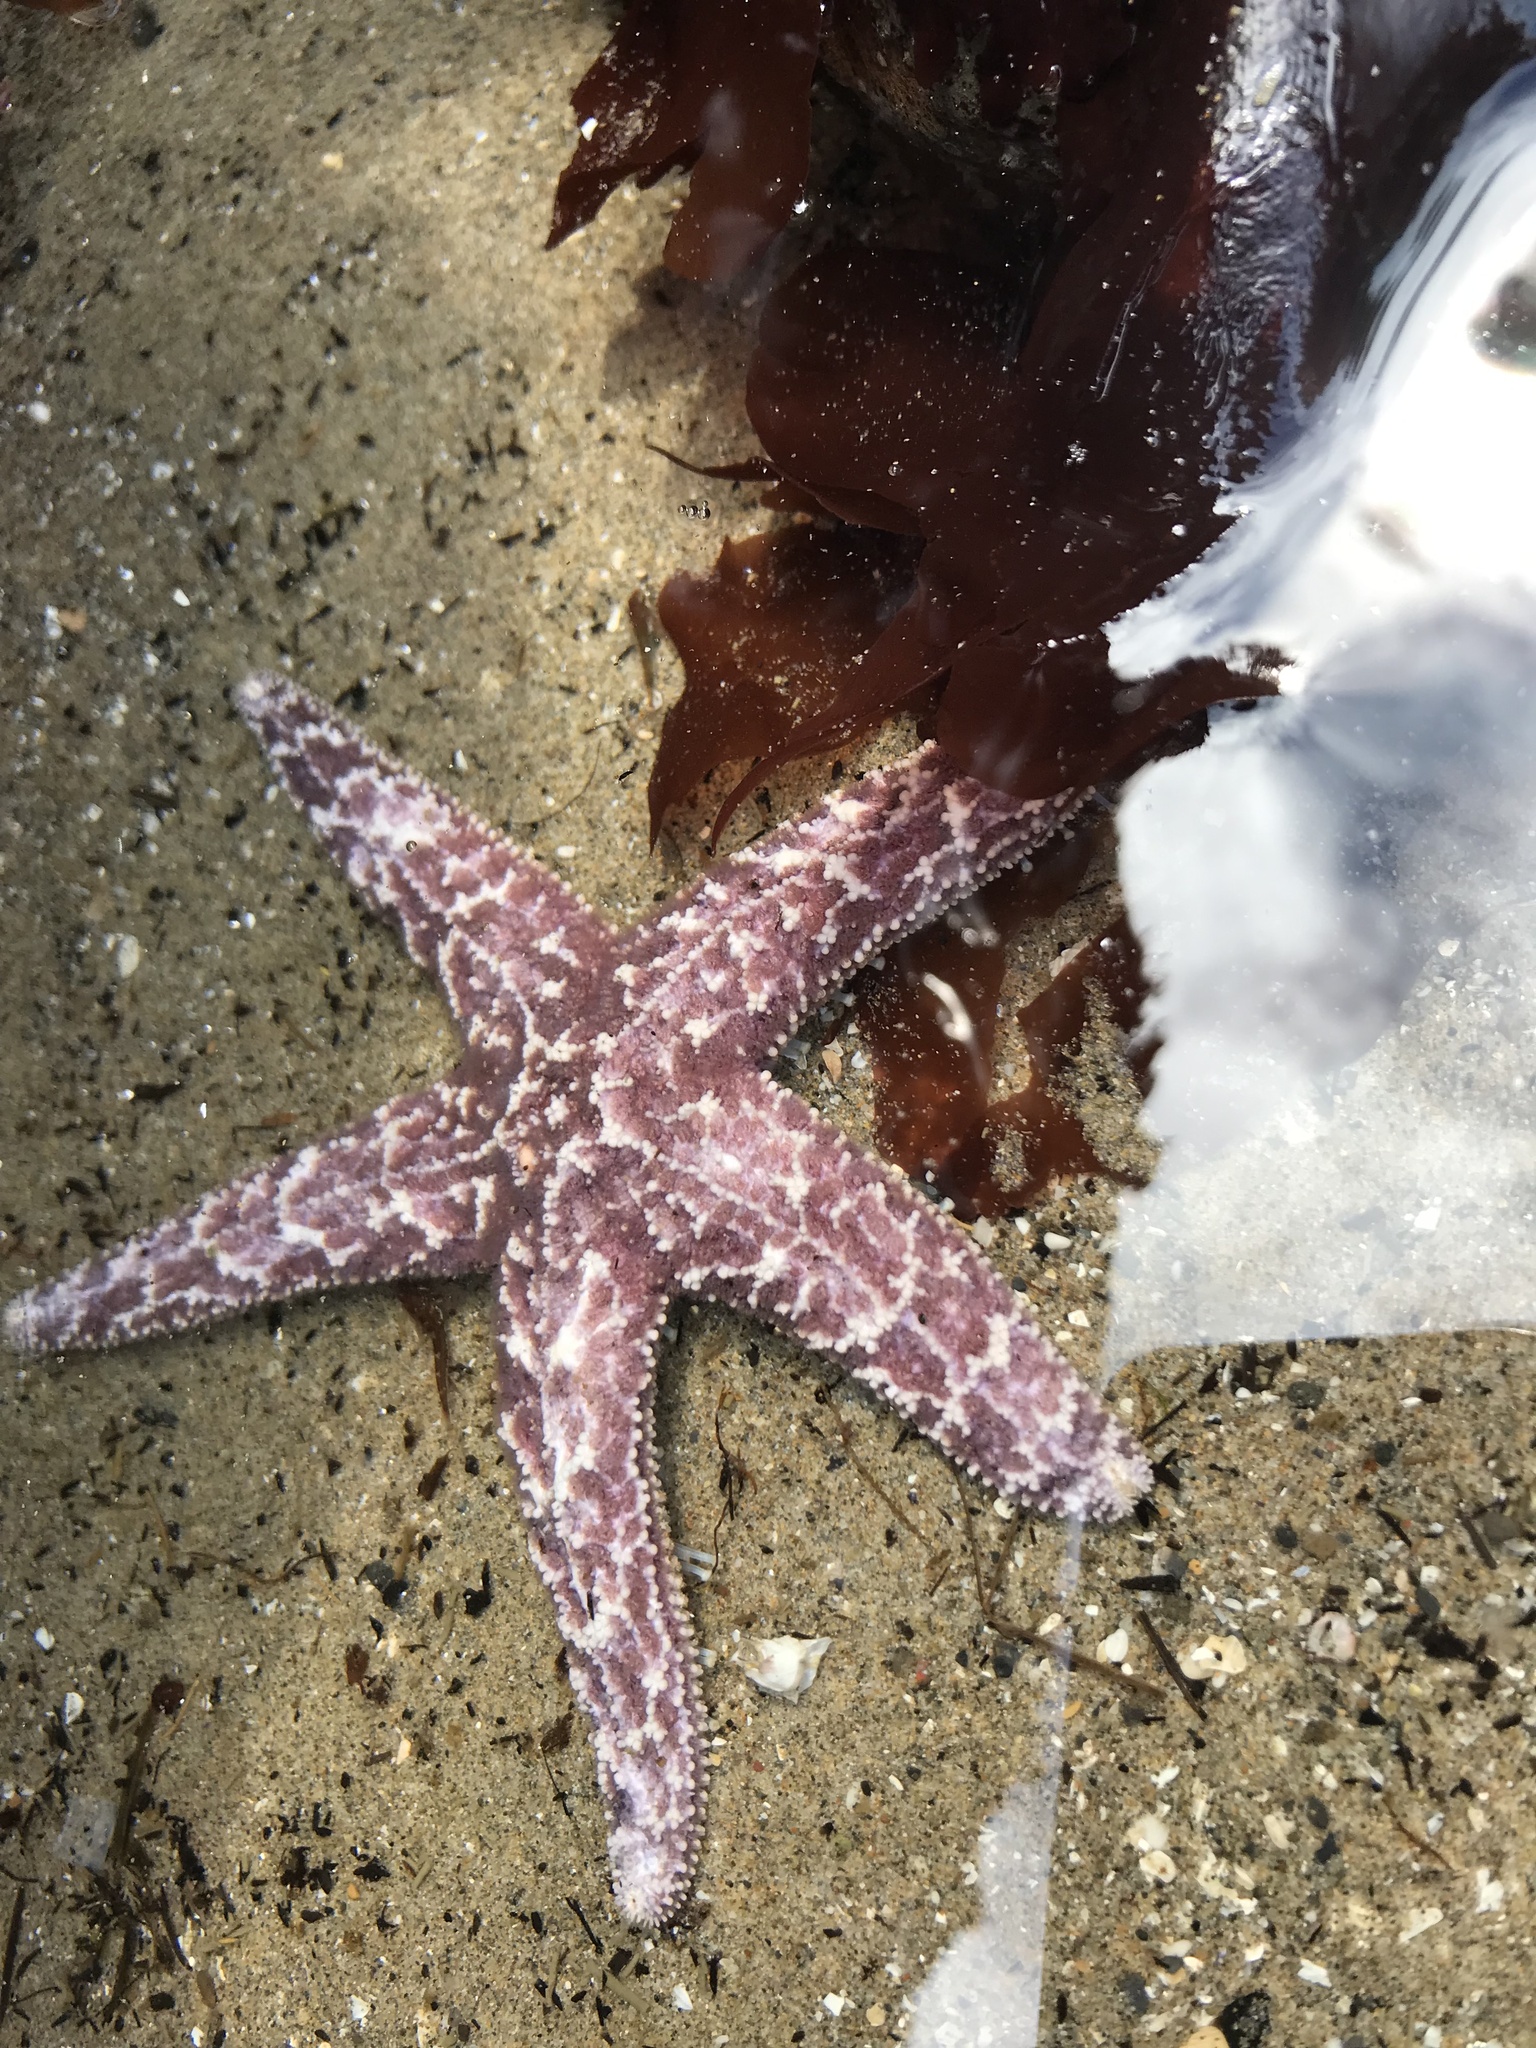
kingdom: Animalia
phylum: Echinodermata
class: Asteroidea
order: Forcipulatida
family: Asteriidae
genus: Pisaster
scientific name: Pisaster ochraceus
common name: Ochre stars
